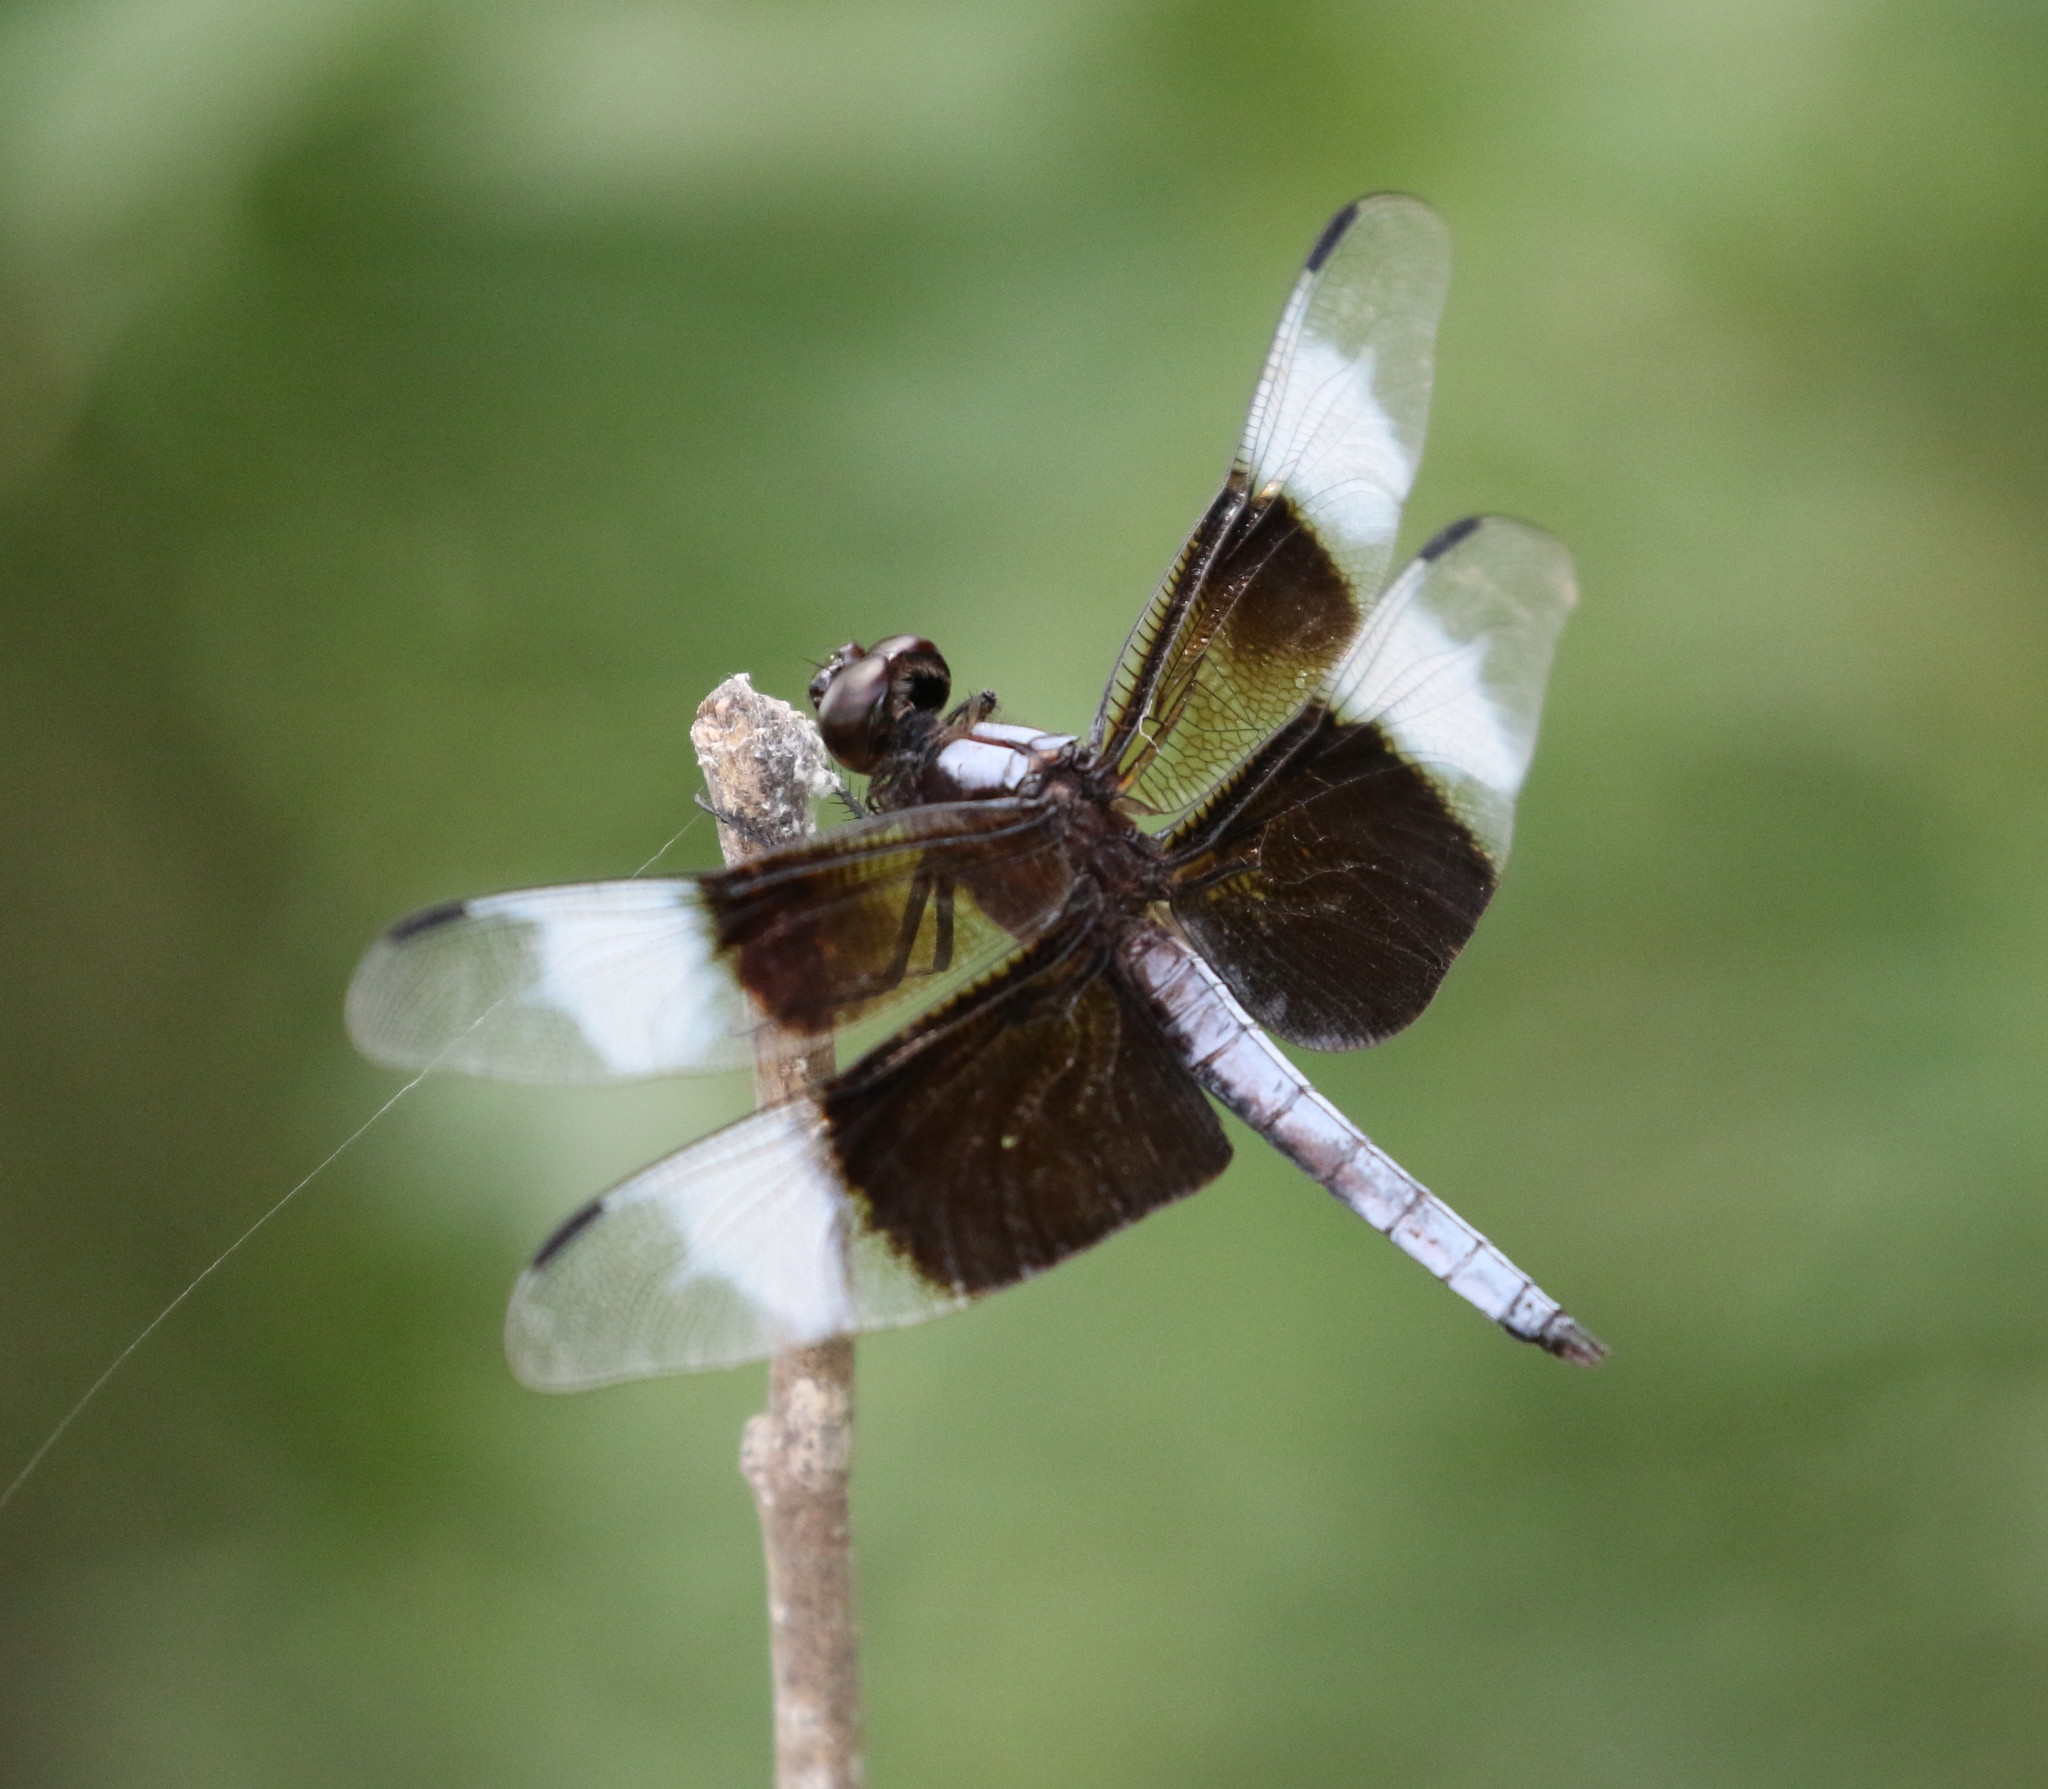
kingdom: Animalia
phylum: Arthropoda
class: Insecta
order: Odonata
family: Libellulidae
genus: Libellula
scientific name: Libellula luctuosa
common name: Widow skimmer
